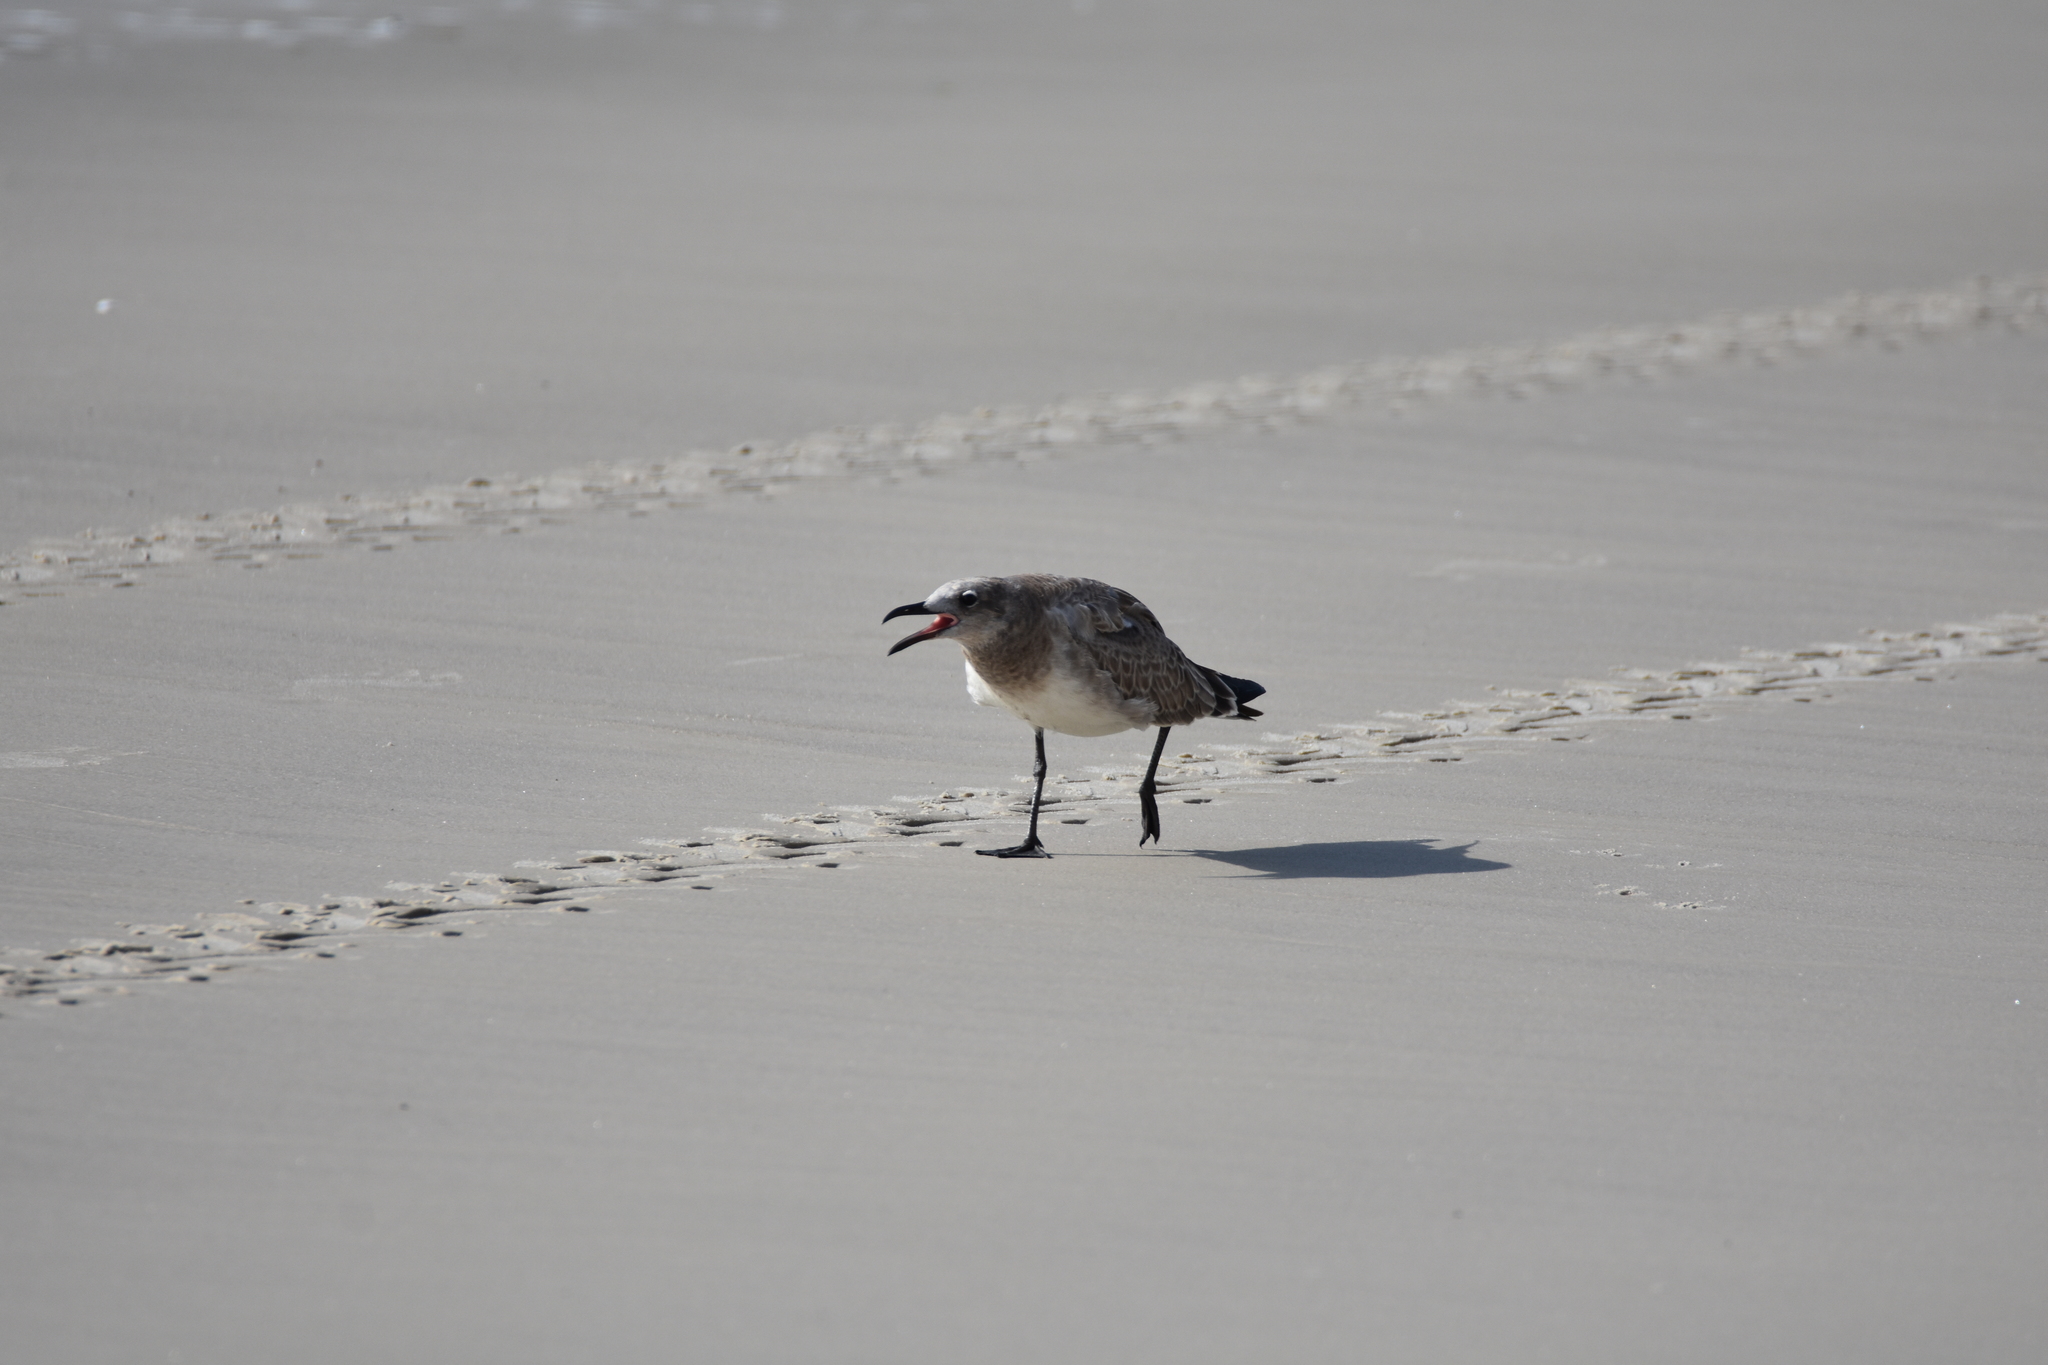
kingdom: Animalia
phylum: Chordata
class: Aves
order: Charadriiformes
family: Laridae
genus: Leucophaeus
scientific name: Leucophaeus atricilla
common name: Laughing gull
